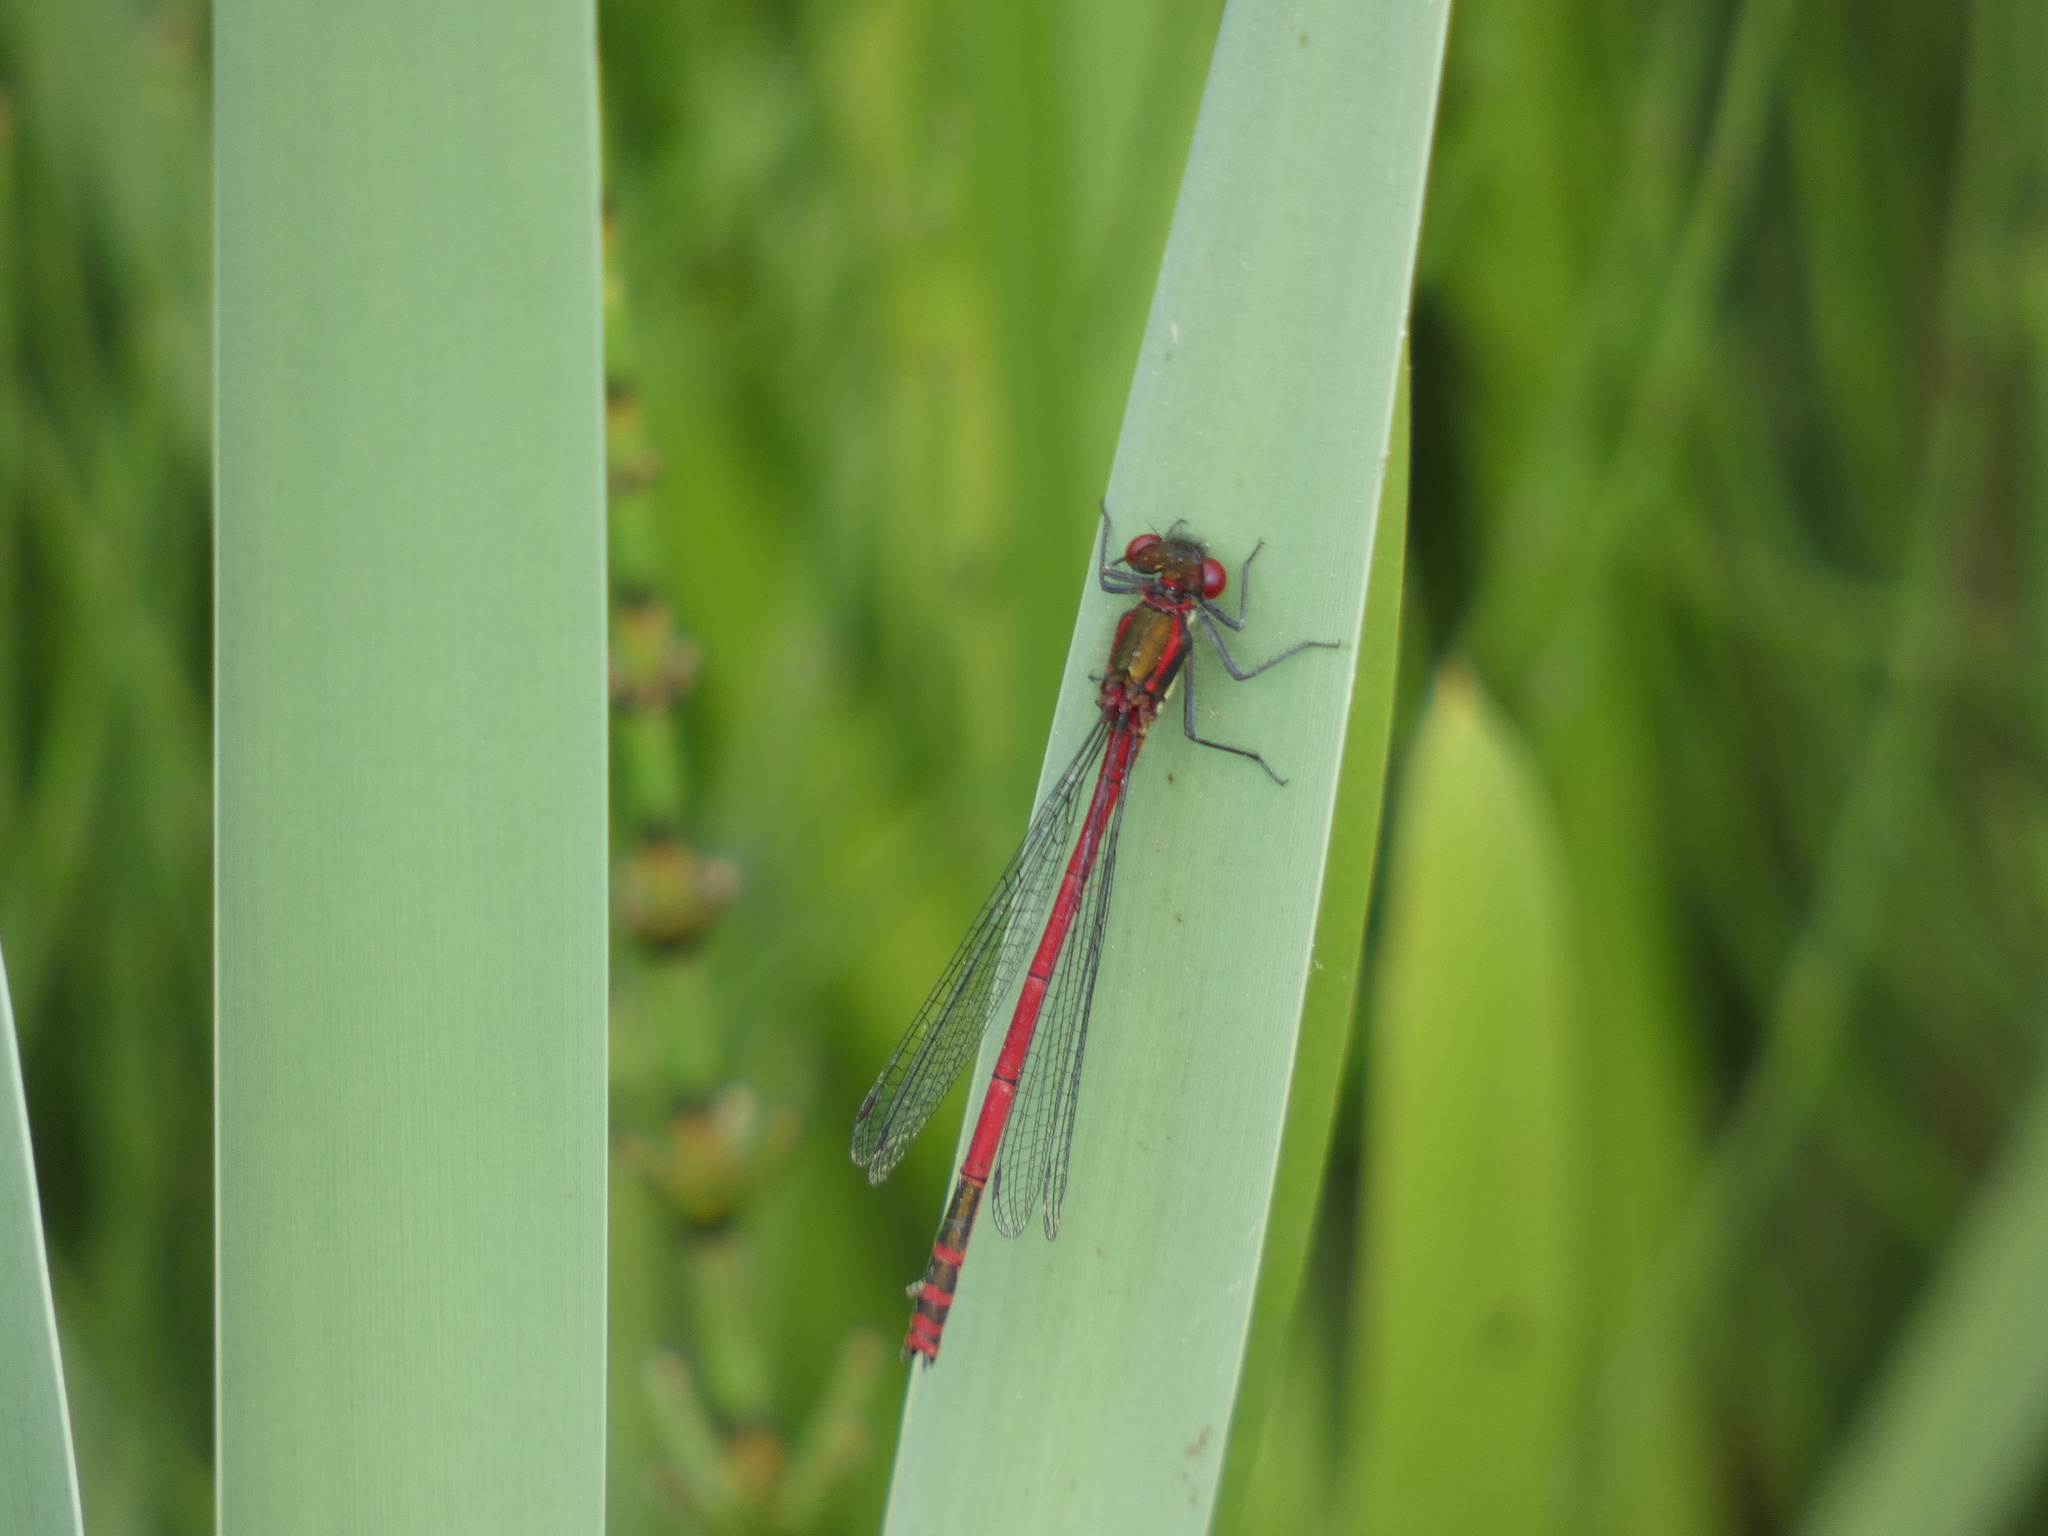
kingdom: Animalia
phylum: Arthropoda
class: Insecta
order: Odonata
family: Coenagrionidae
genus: Pyrrhosoma
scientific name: Pyrrhosoma nymphula
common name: Large red damsel
